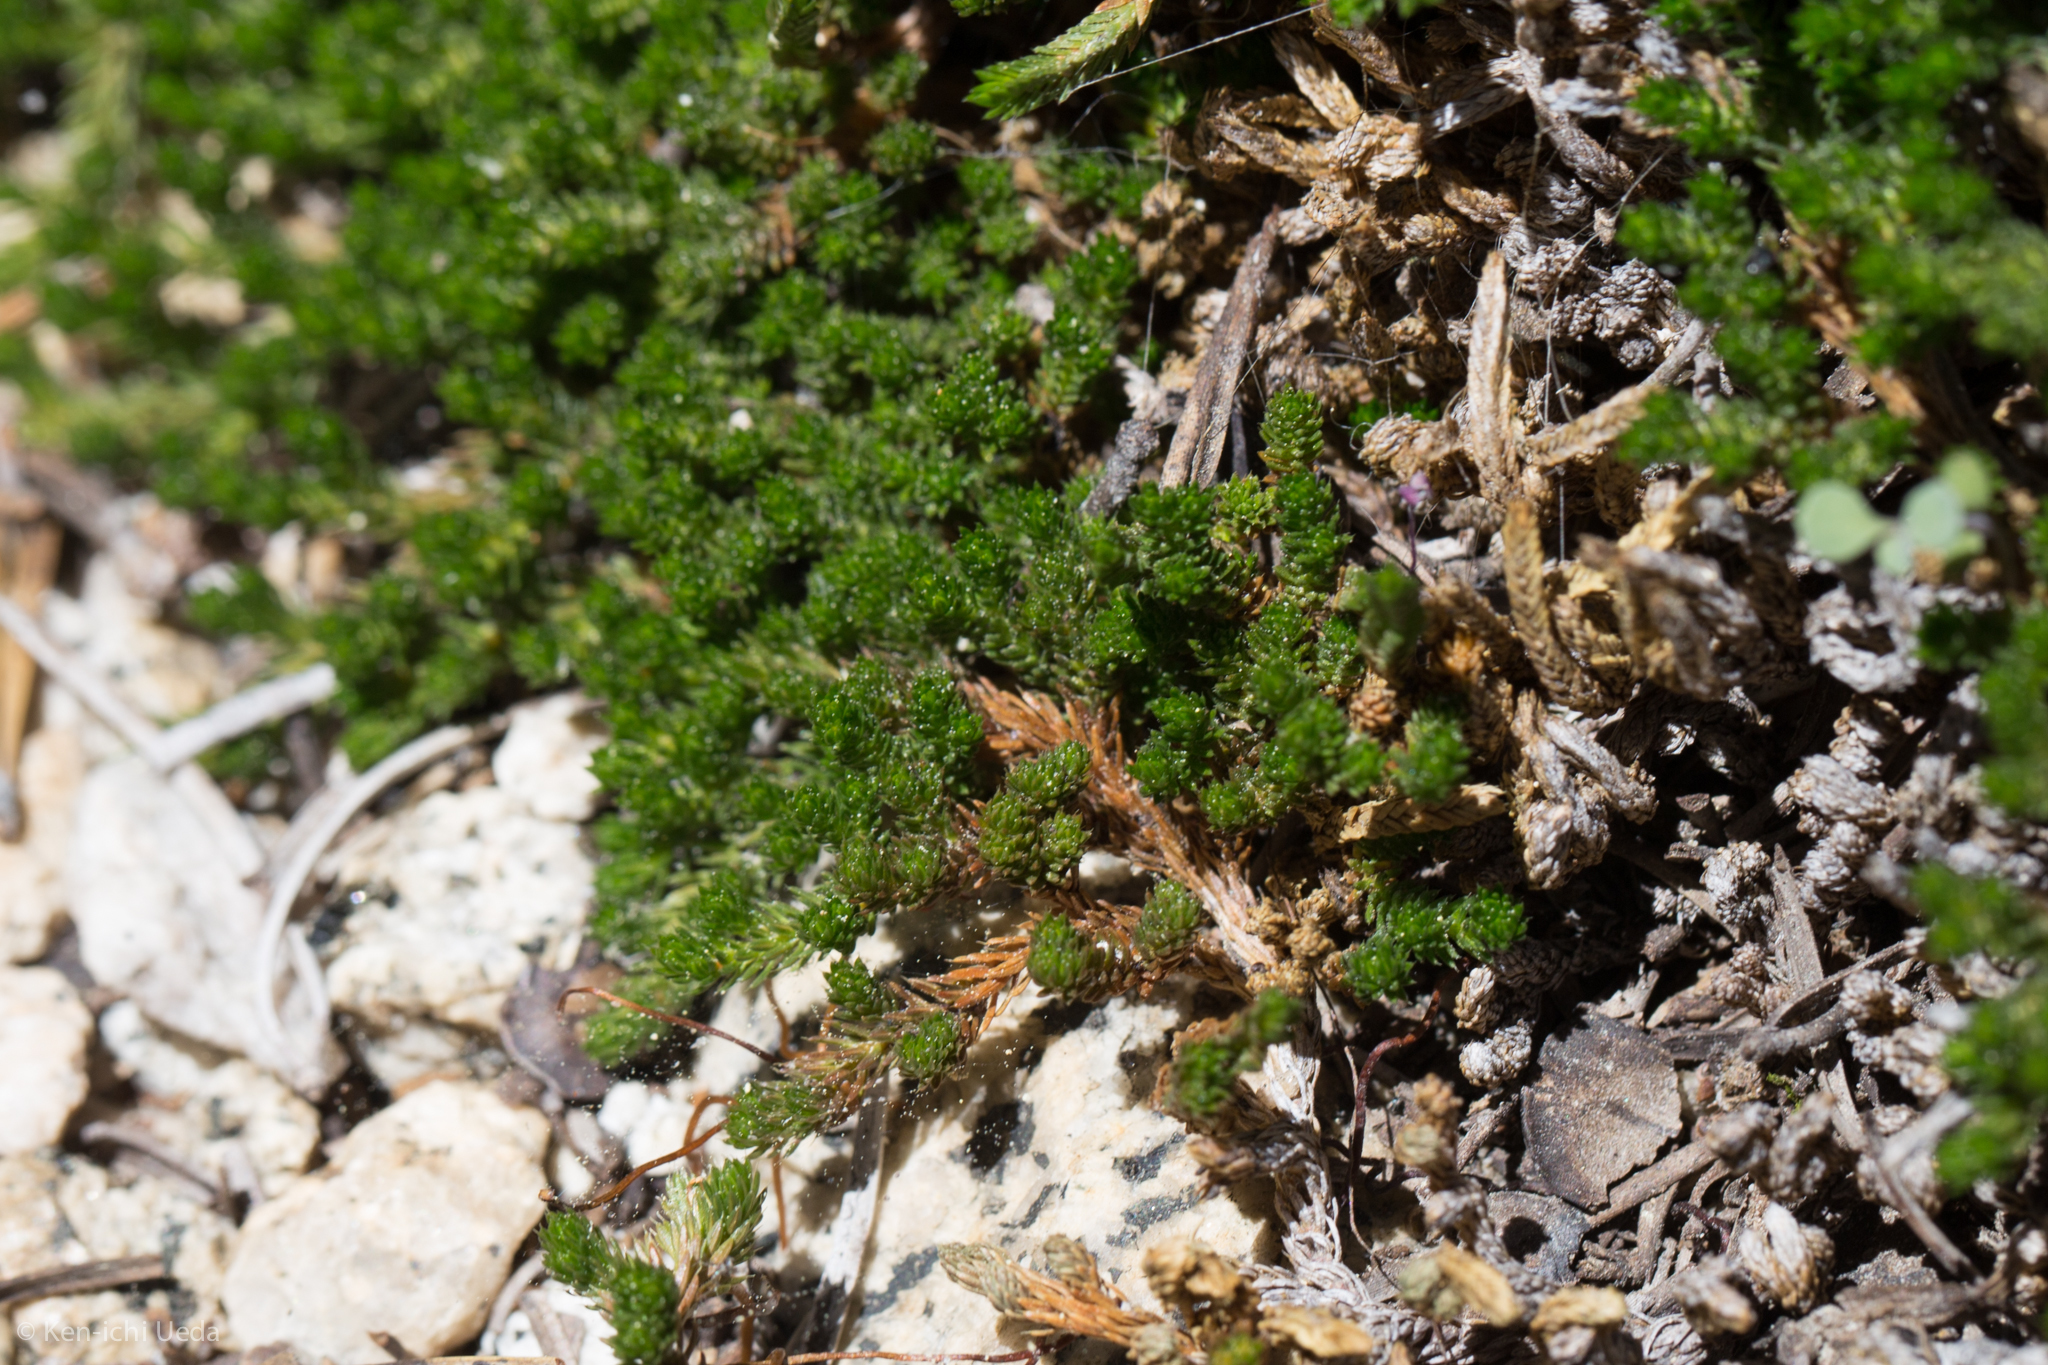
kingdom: Plantae
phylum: Tracheophyta
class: Lycopodiopsida
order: Selaginellales
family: Selaginellaceae
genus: Selaginella
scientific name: Selaginella watsonii
